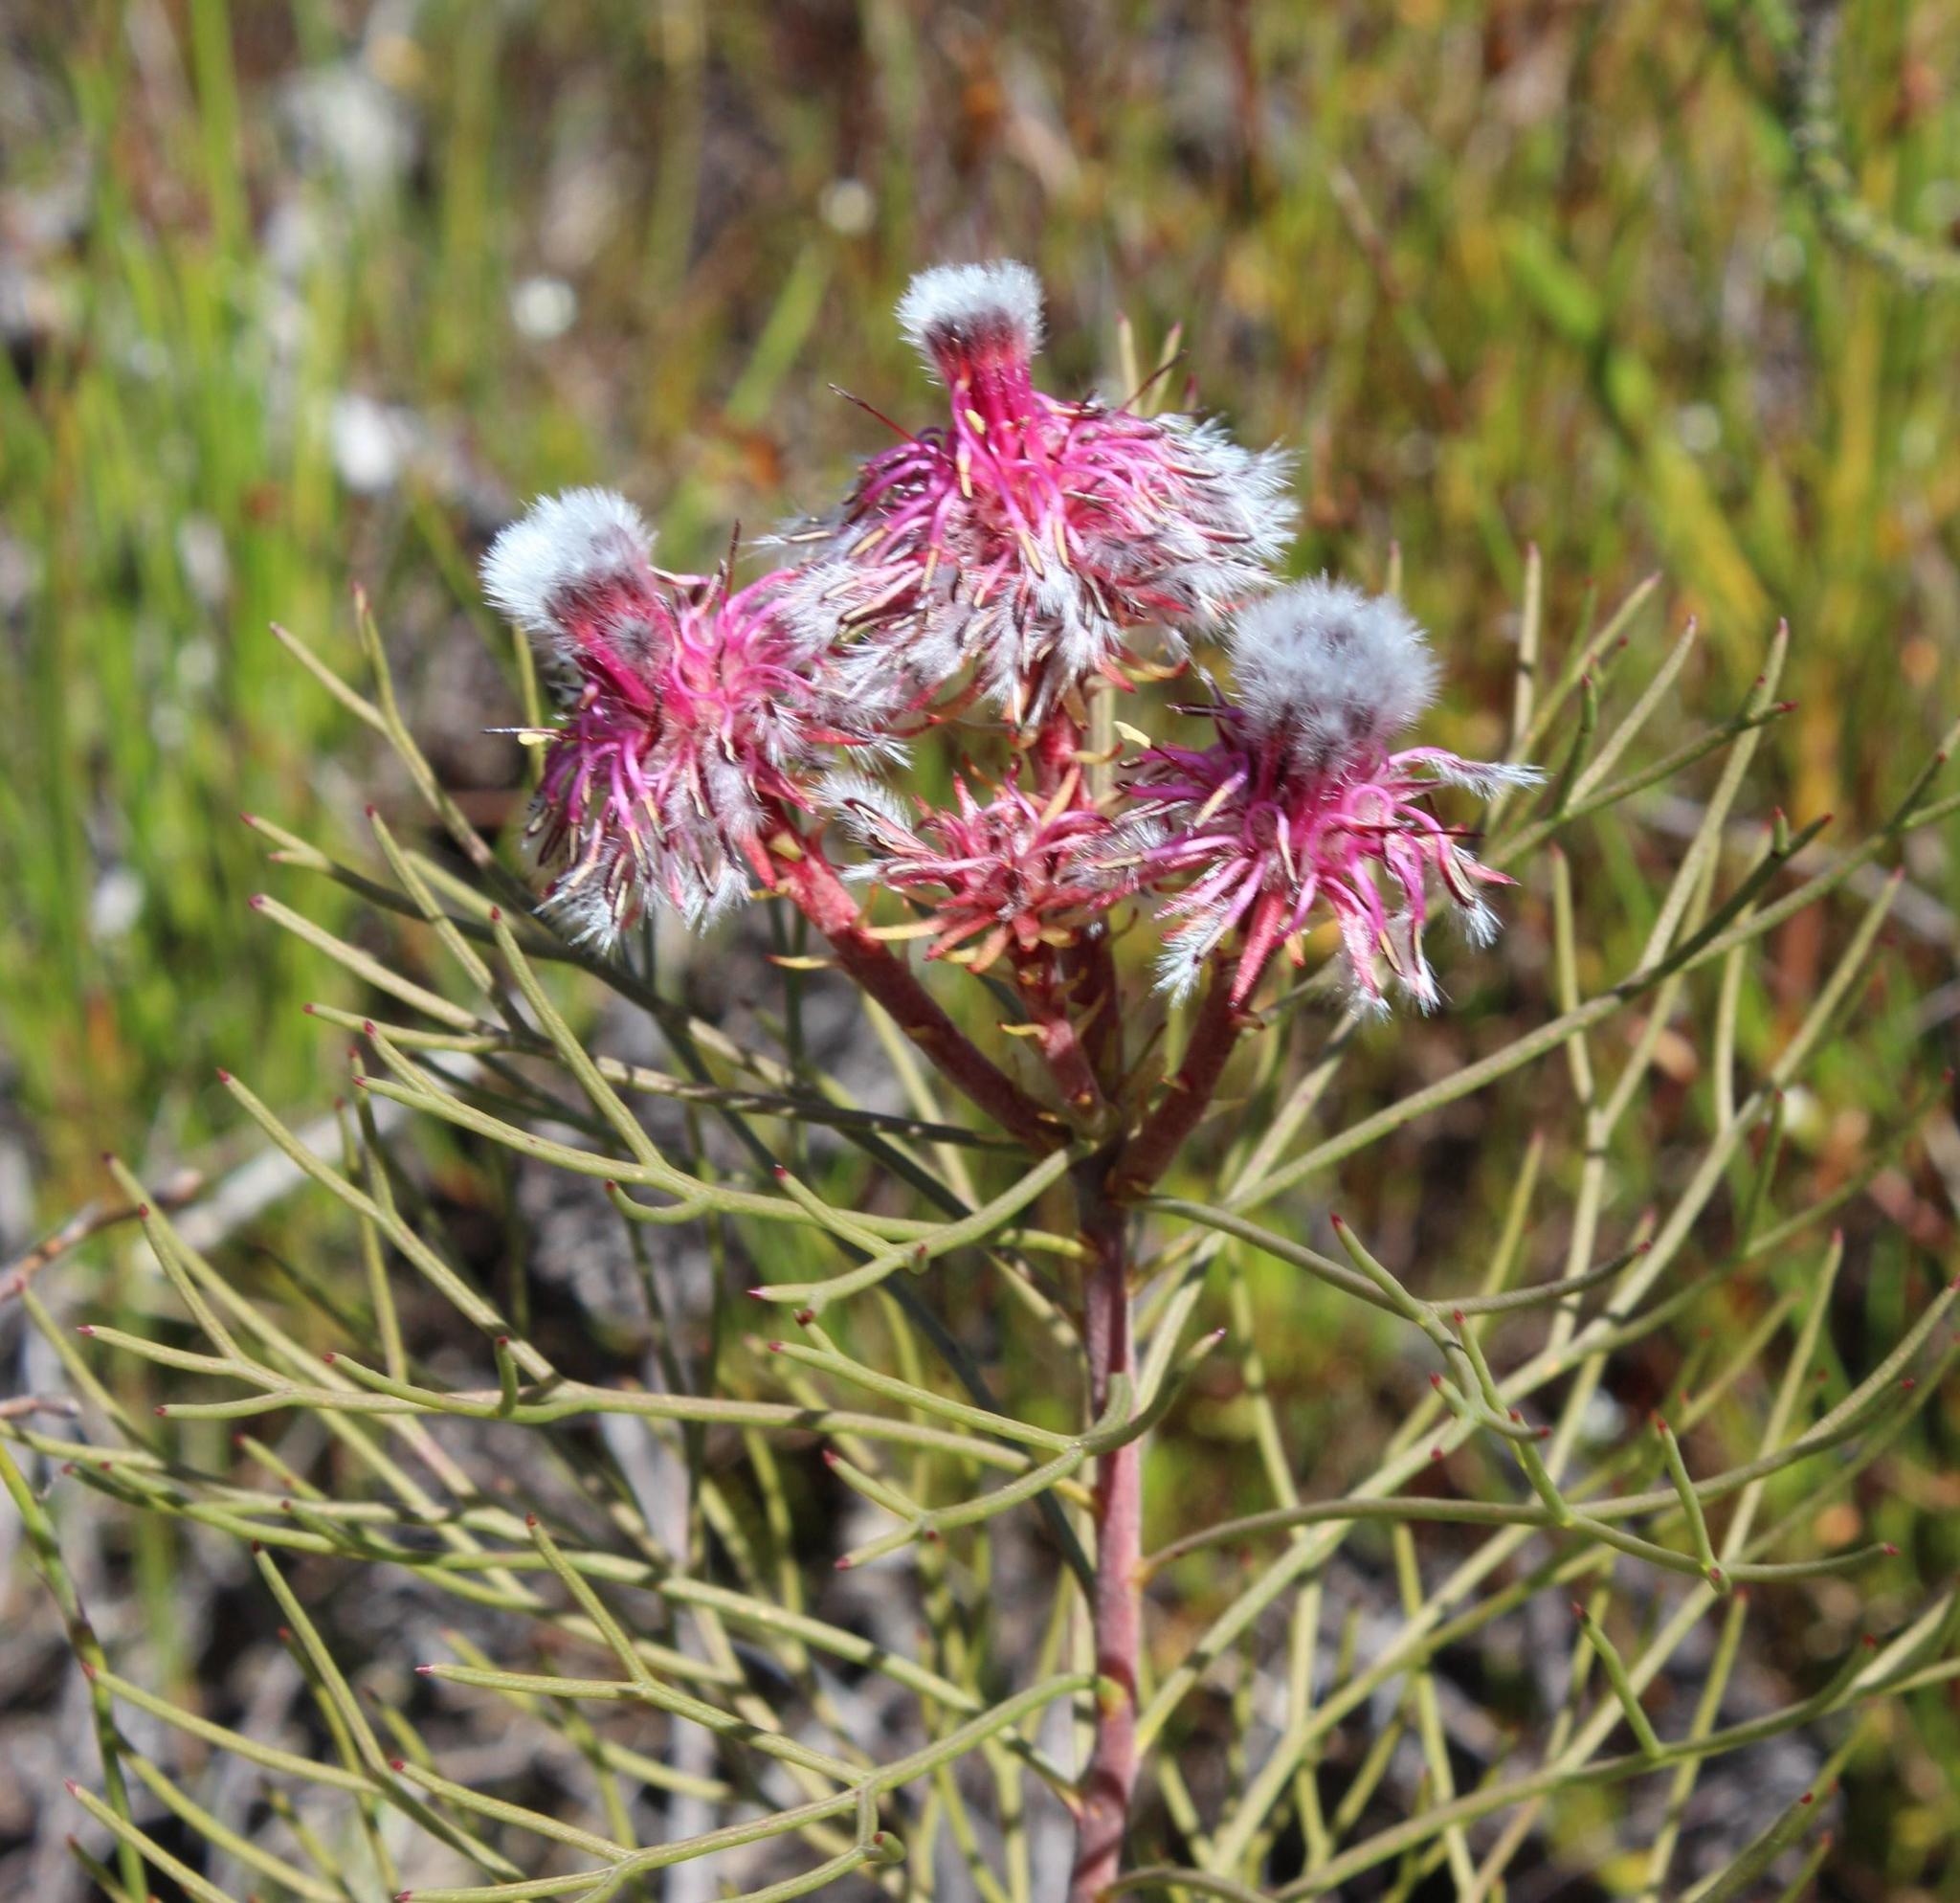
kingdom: Plantae
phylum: Tracheophyta
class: Magnoliopsida
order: Proteales
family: Proteaceae
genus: Serruria
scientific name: Serruria phylicoides
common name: Bearded spiderhead
